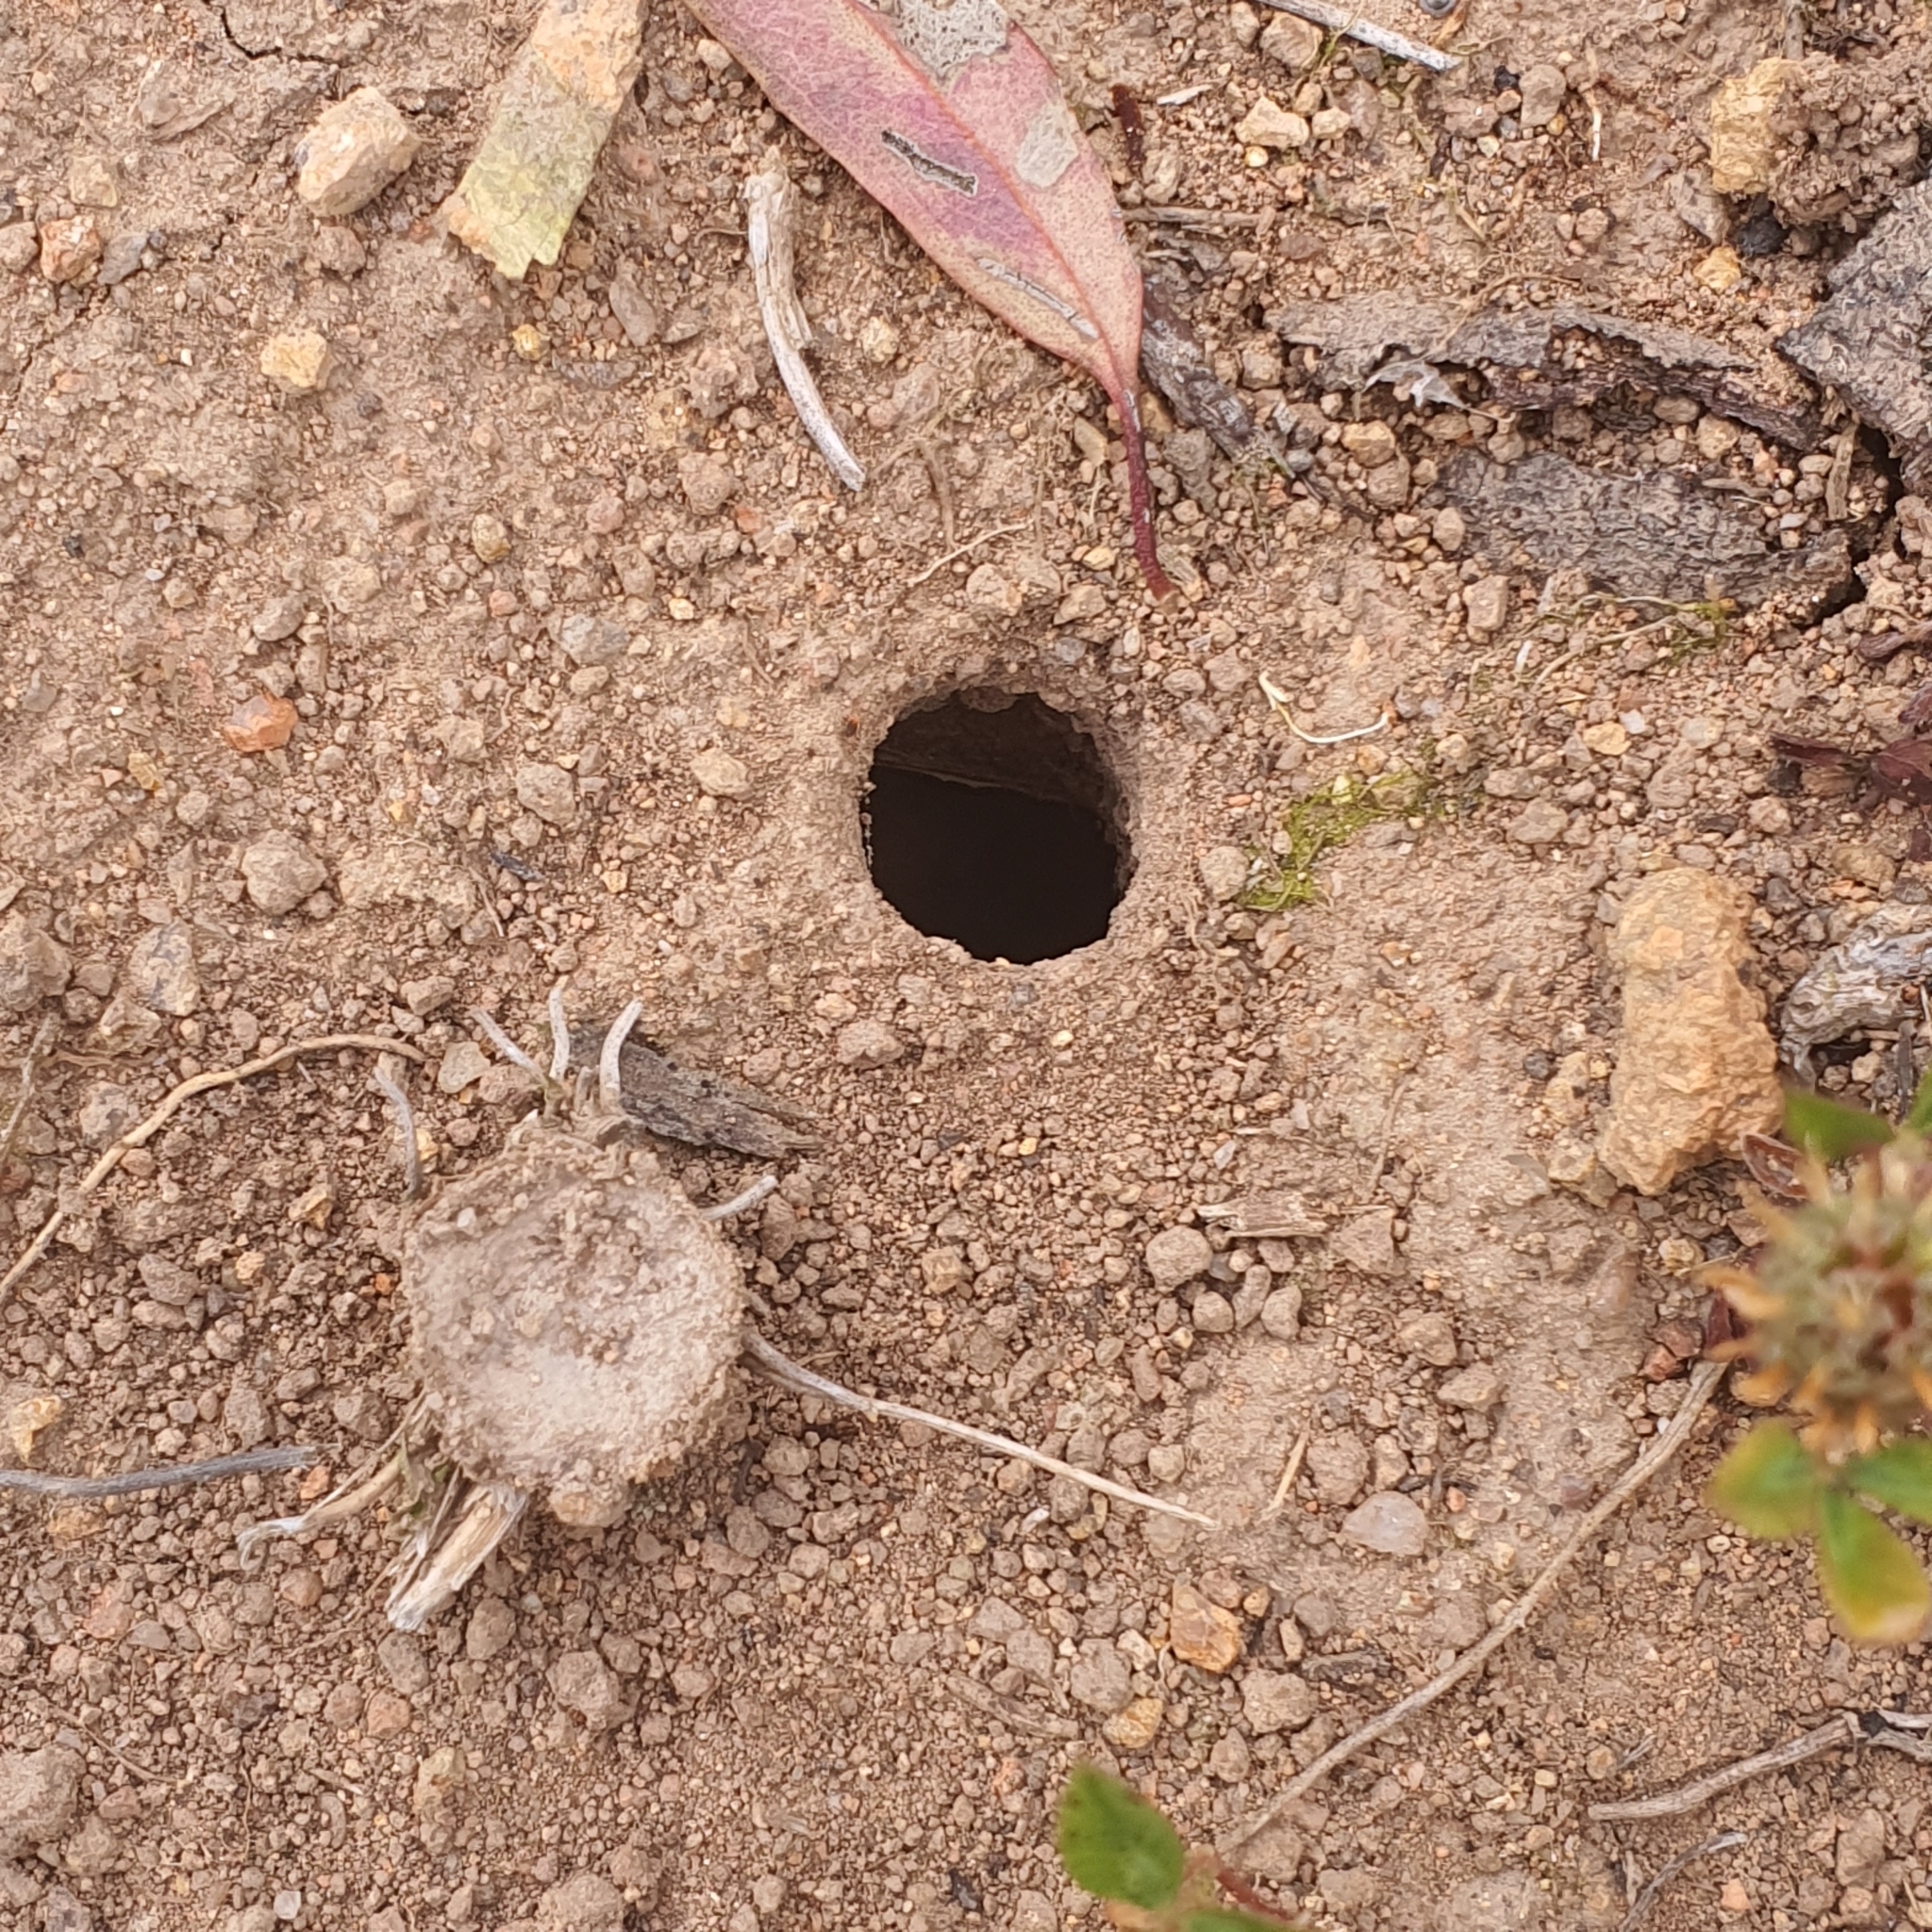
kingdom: Animalia
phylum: Arthropoda
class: Arachnida
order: Araneae
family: Lycosidae
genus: Portacosa
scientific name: Portacosa cinerea
